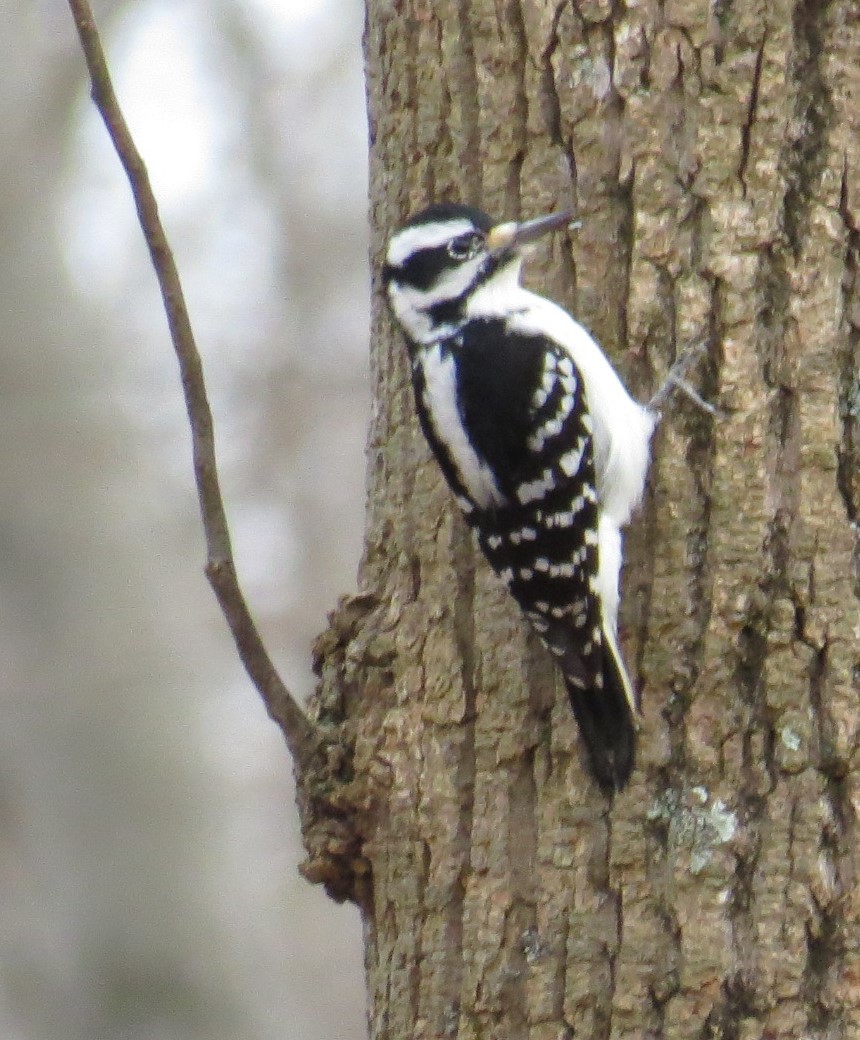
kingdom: Animalia
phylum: Chordata
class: Aves
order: Piciformes
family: Picidae
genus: Leuconotopicus
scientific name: Leuconotopicus villosus
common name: Hairy woodpecker
